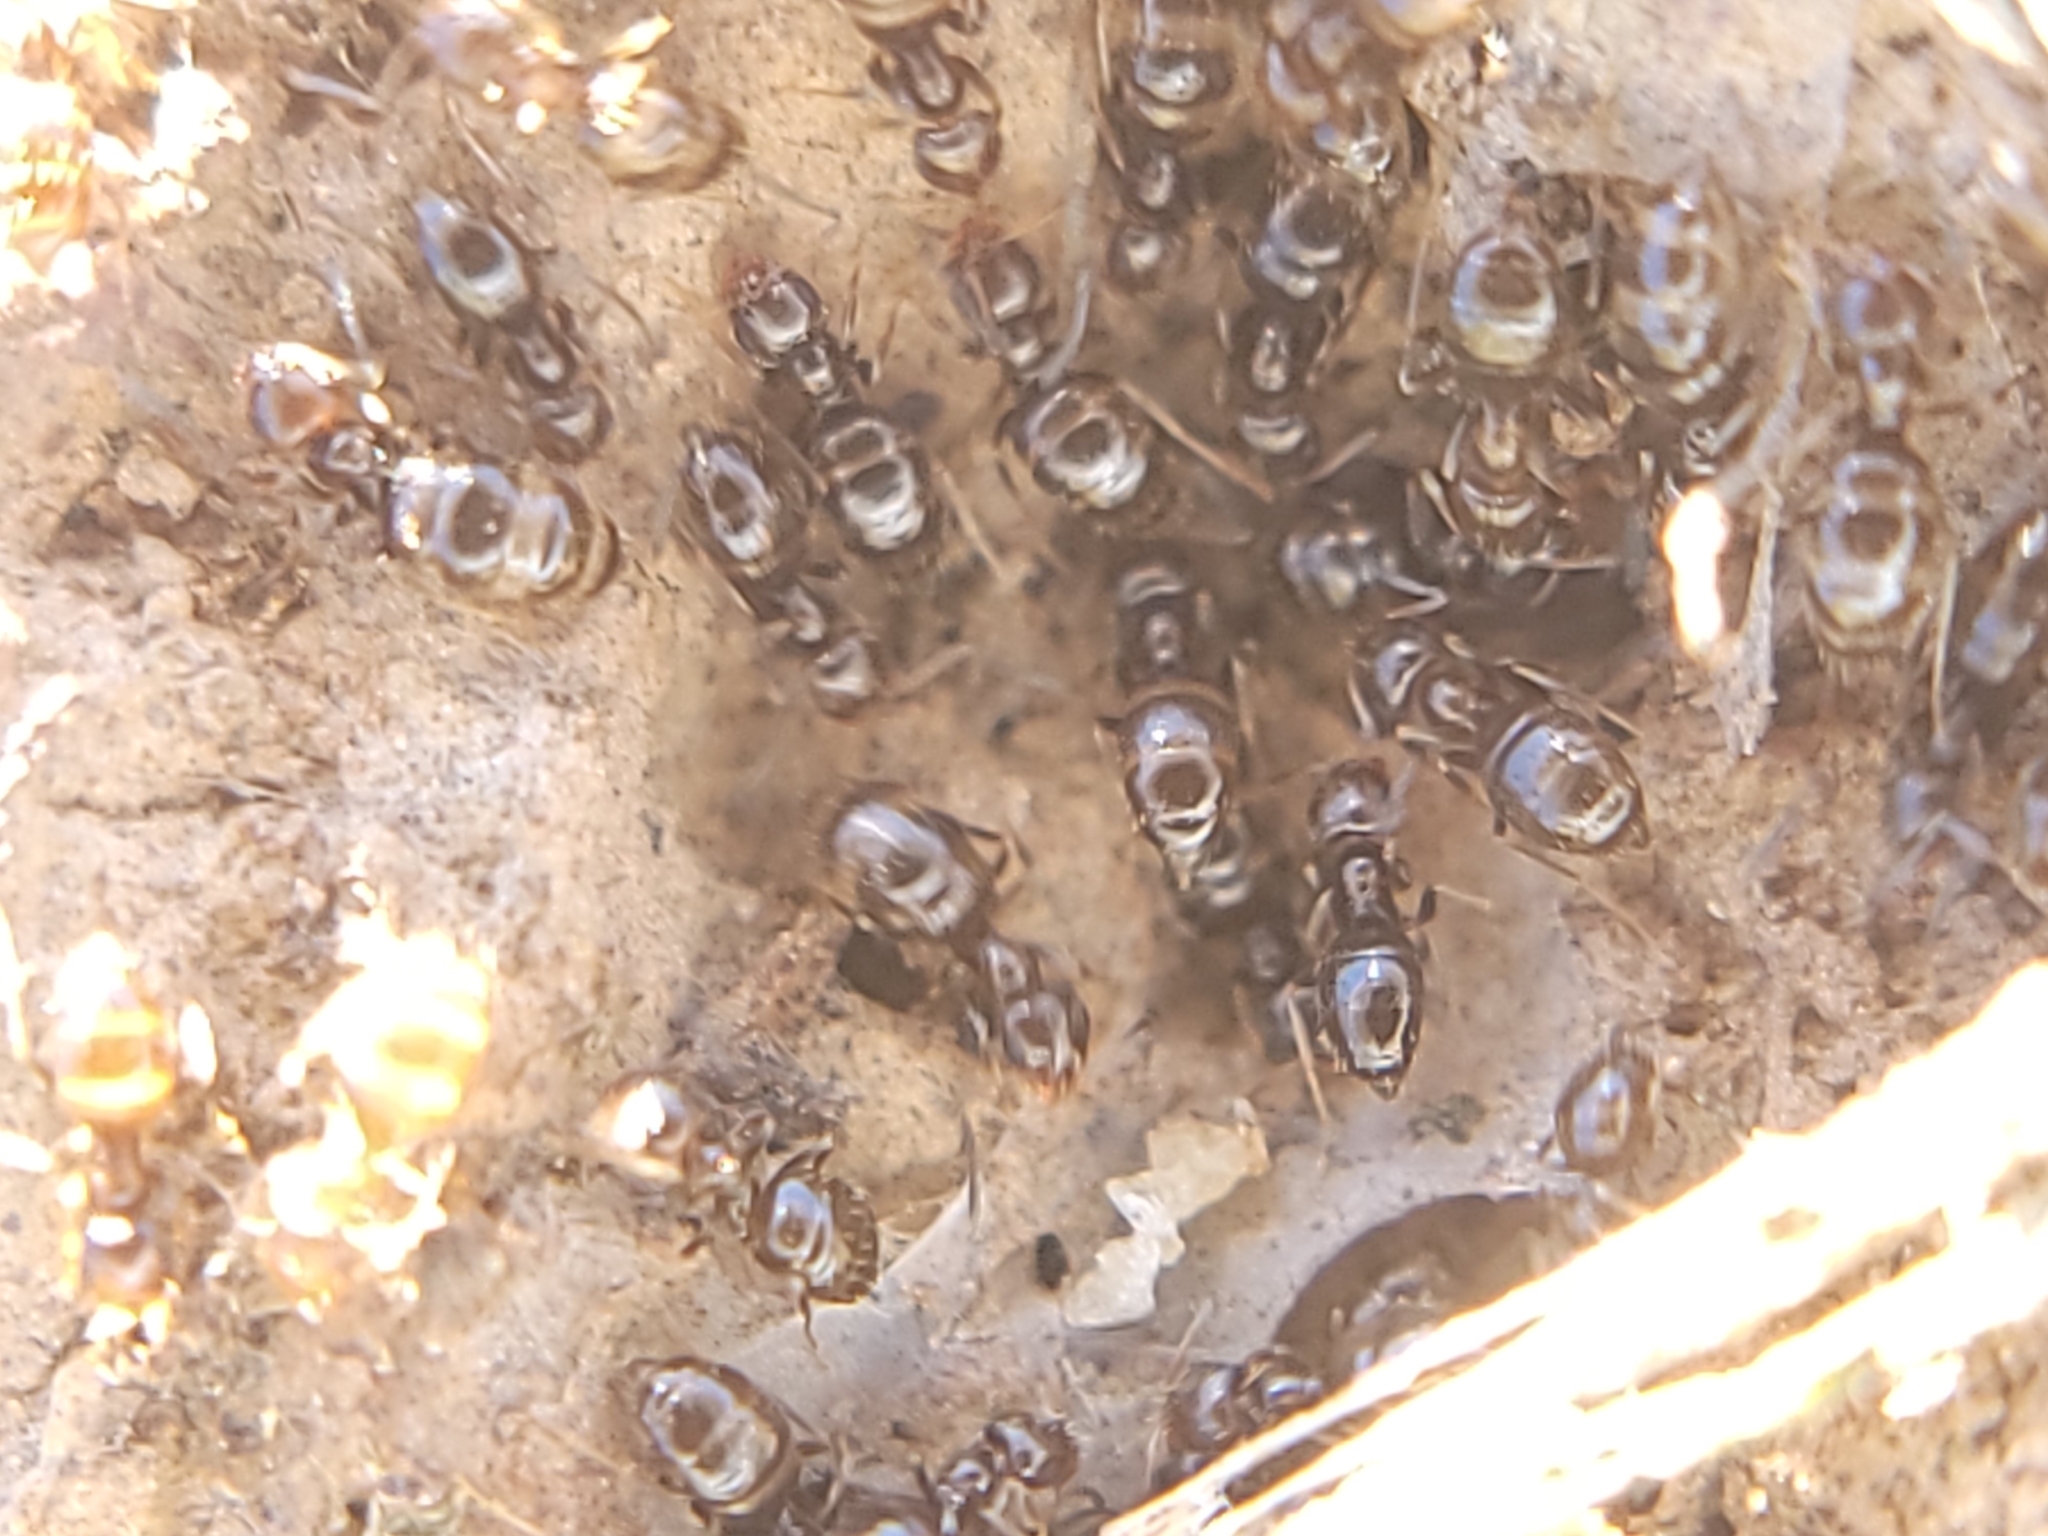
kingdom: Animalia
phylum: Arthropoda
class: Insecta
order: Hymenoptera
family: Formicidae
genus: Brachymyrmex
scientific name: Brachymyrmex patagonicus
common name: Dark rover ant
